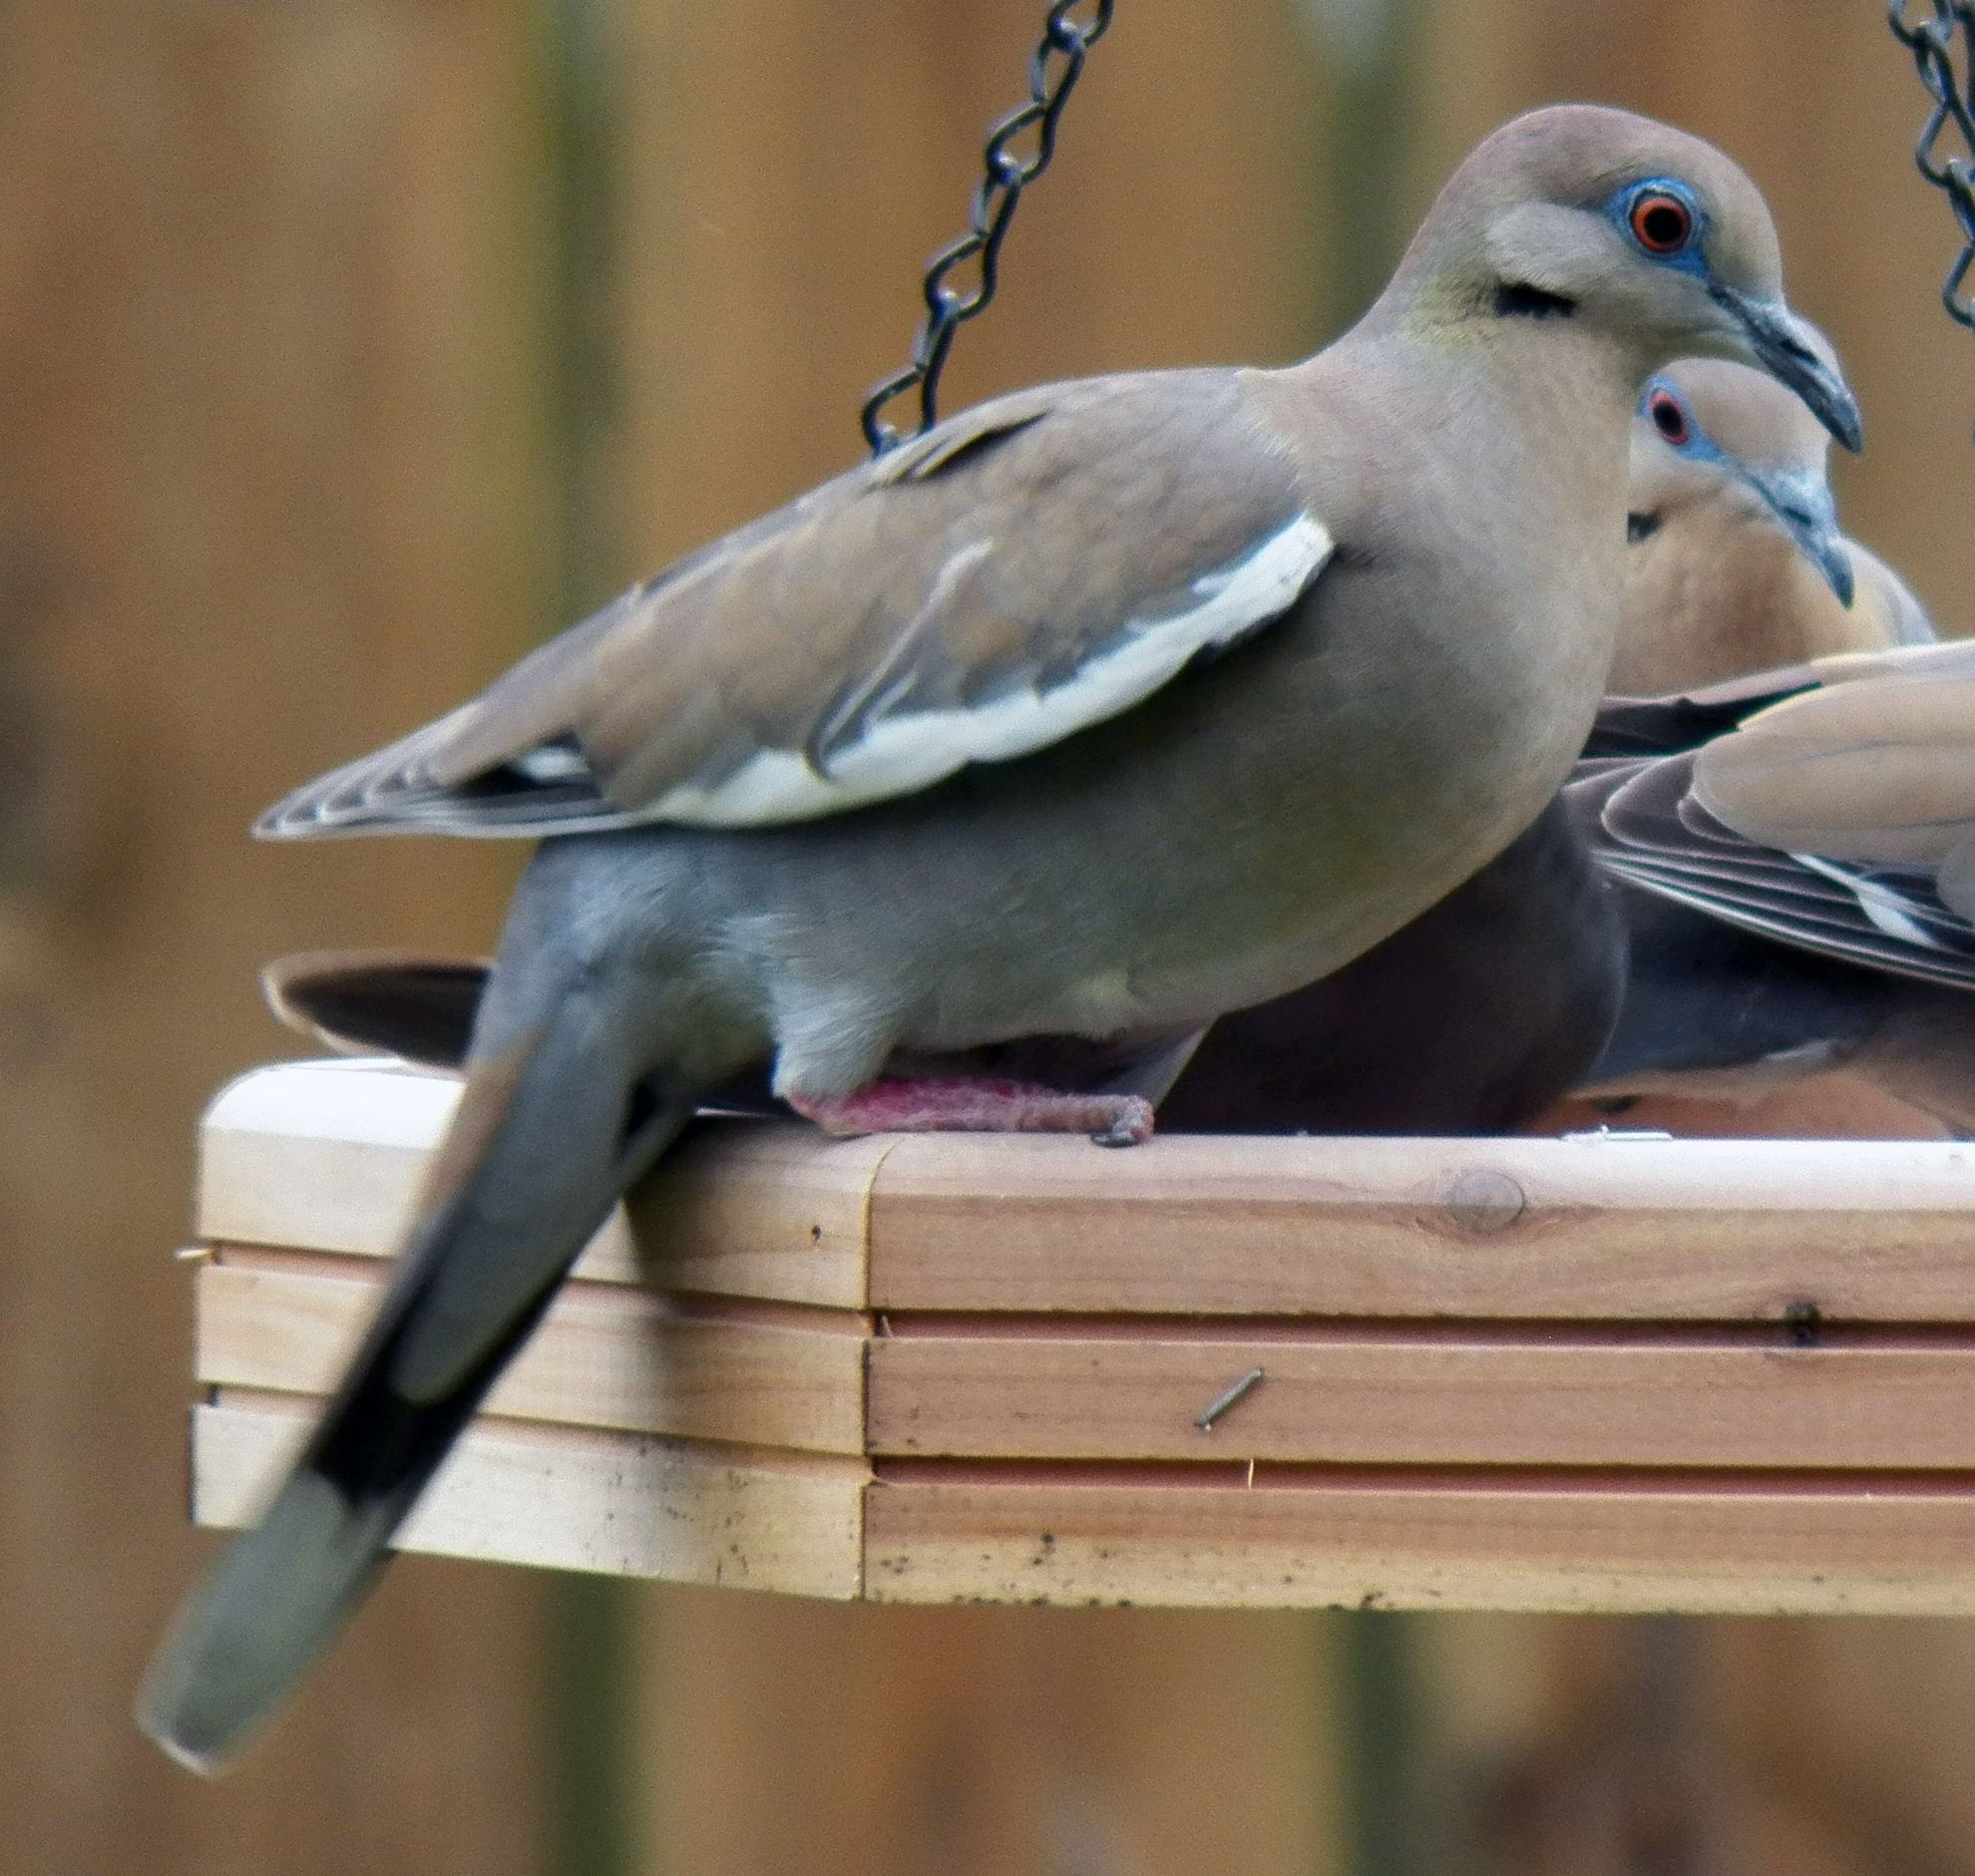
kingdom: Animalia
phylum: Chordata
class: Aves
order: Columbiformes
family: Columbidae
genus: Zenaida
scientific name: Zenaida asiatica
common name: White-winged dove
